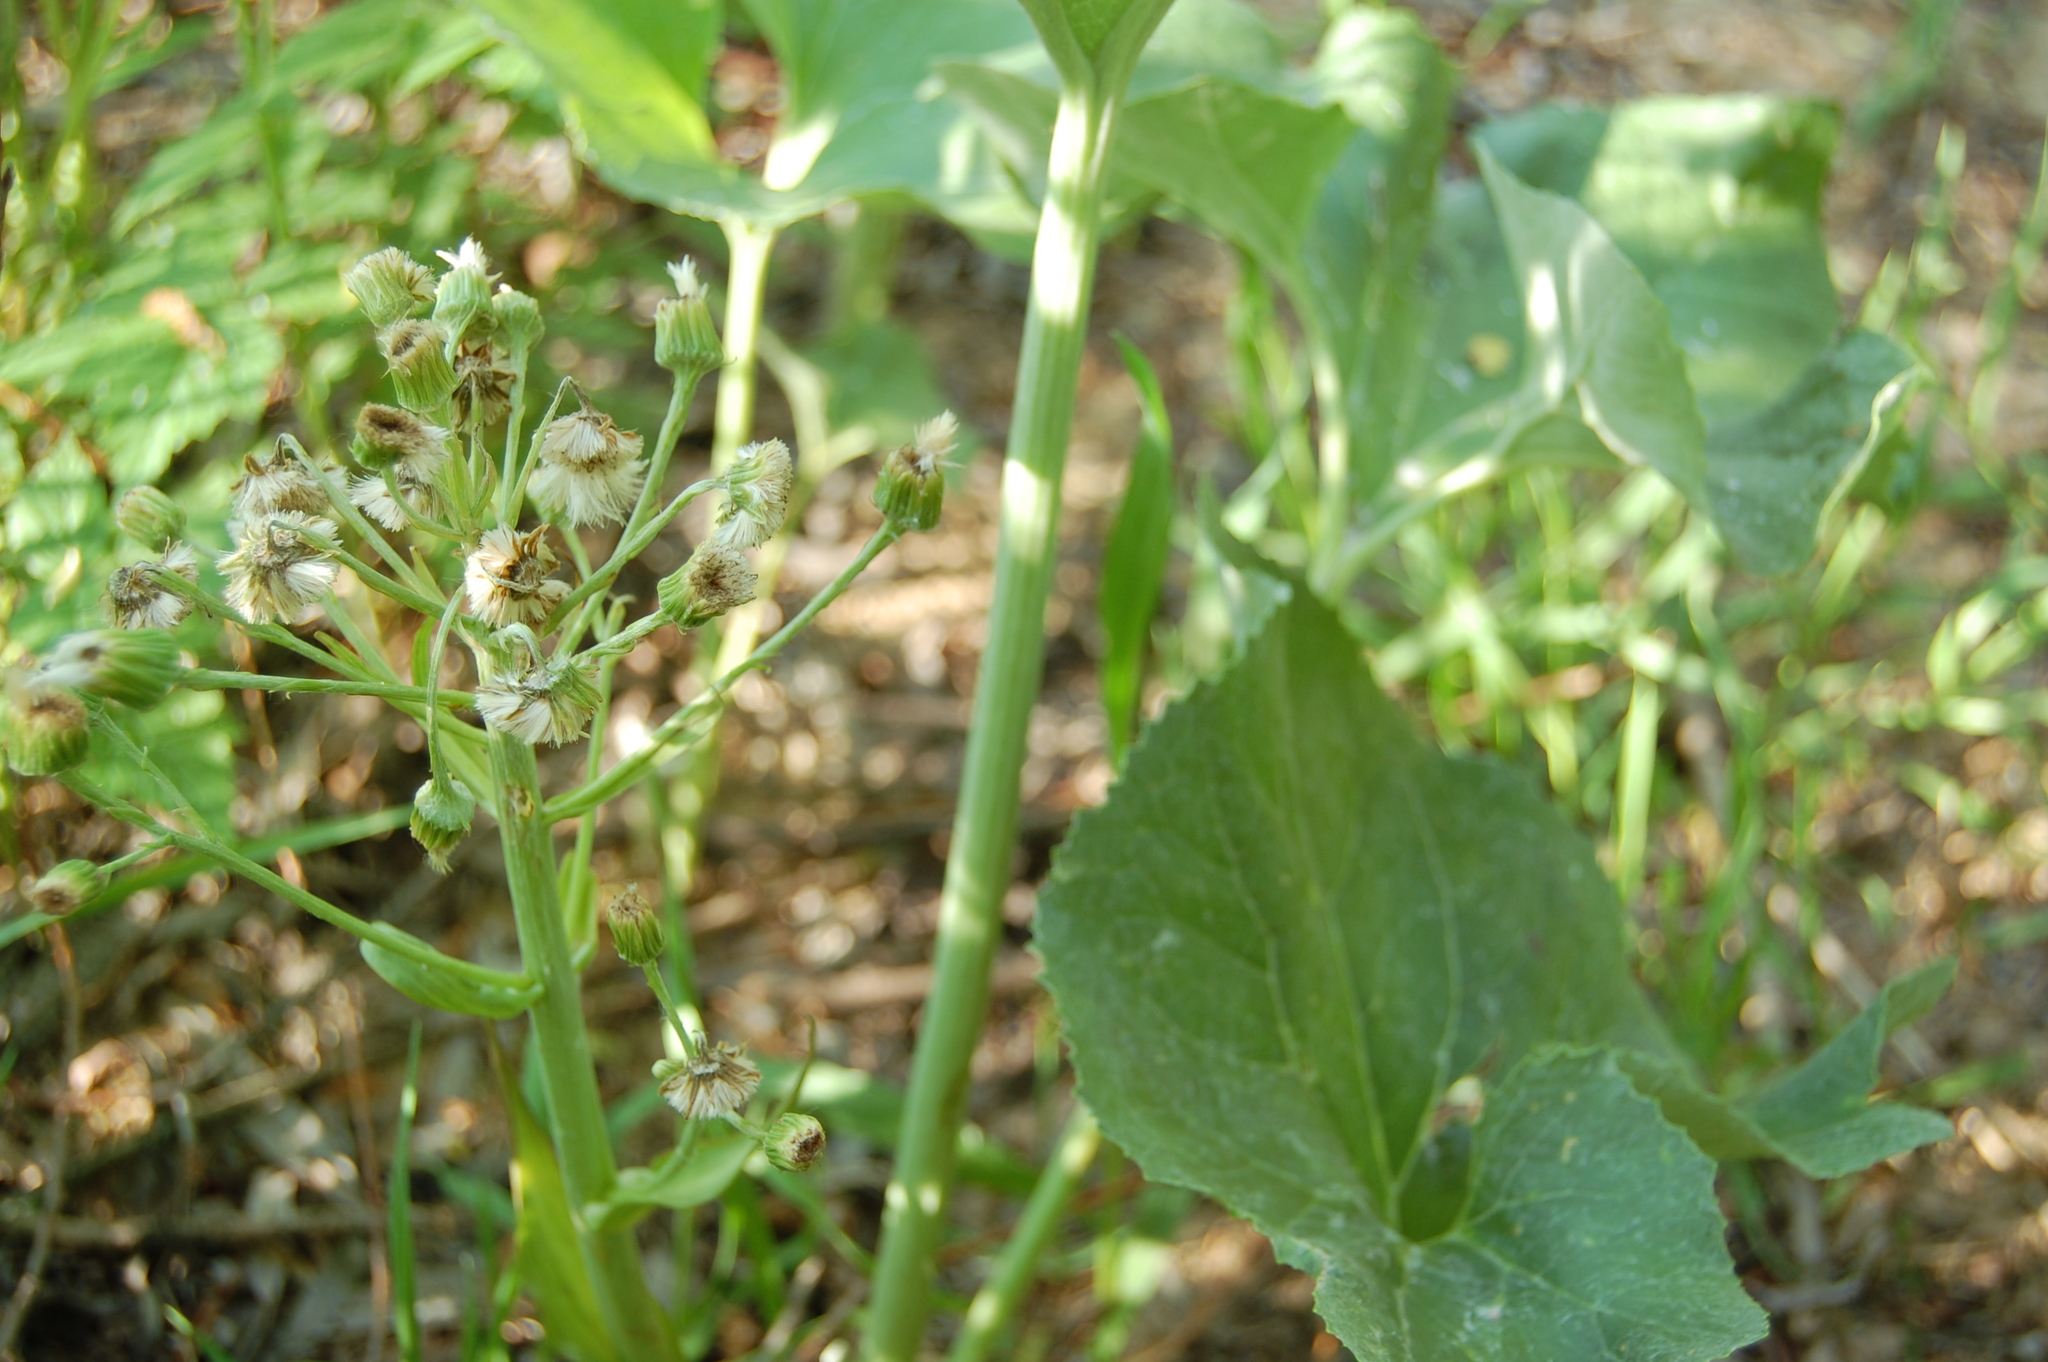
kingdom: Plantae
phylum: Tracheophyta
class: Magnoliopsida
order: Asterales
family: Asteraceae
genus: Petasites
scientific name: Petasites spurius
